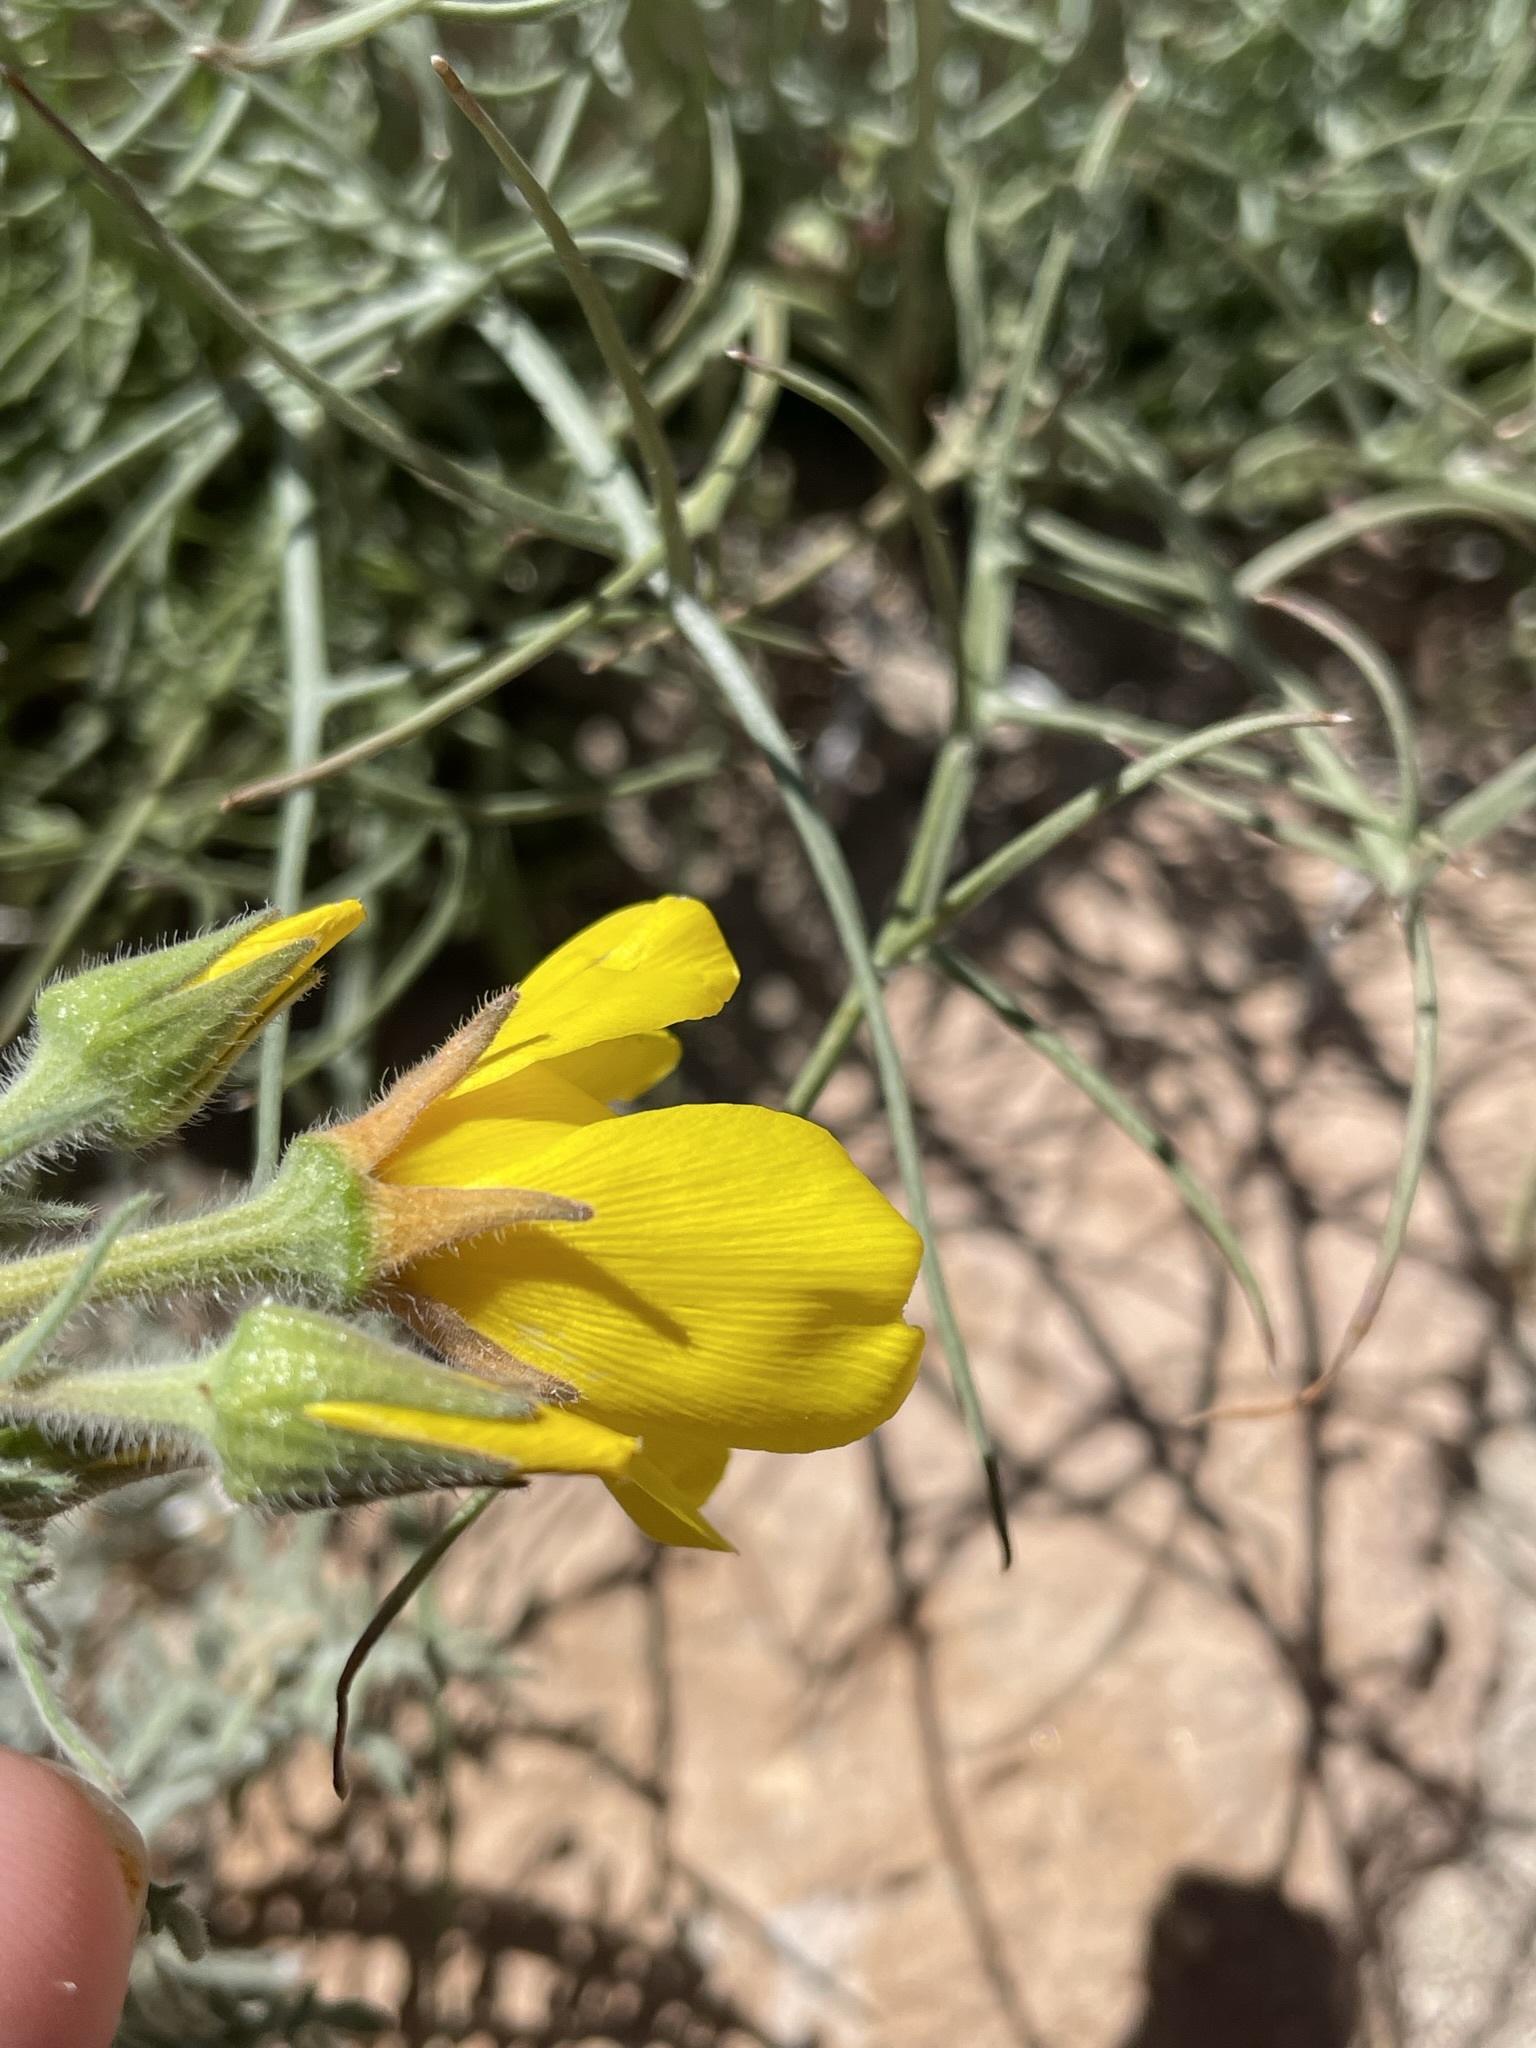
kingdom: Plantae
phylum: Tracheophyta
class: Magnoliopsida
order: Cornales
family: Loasaceae
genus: Mentzelia
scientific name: Mentzelia nitens
